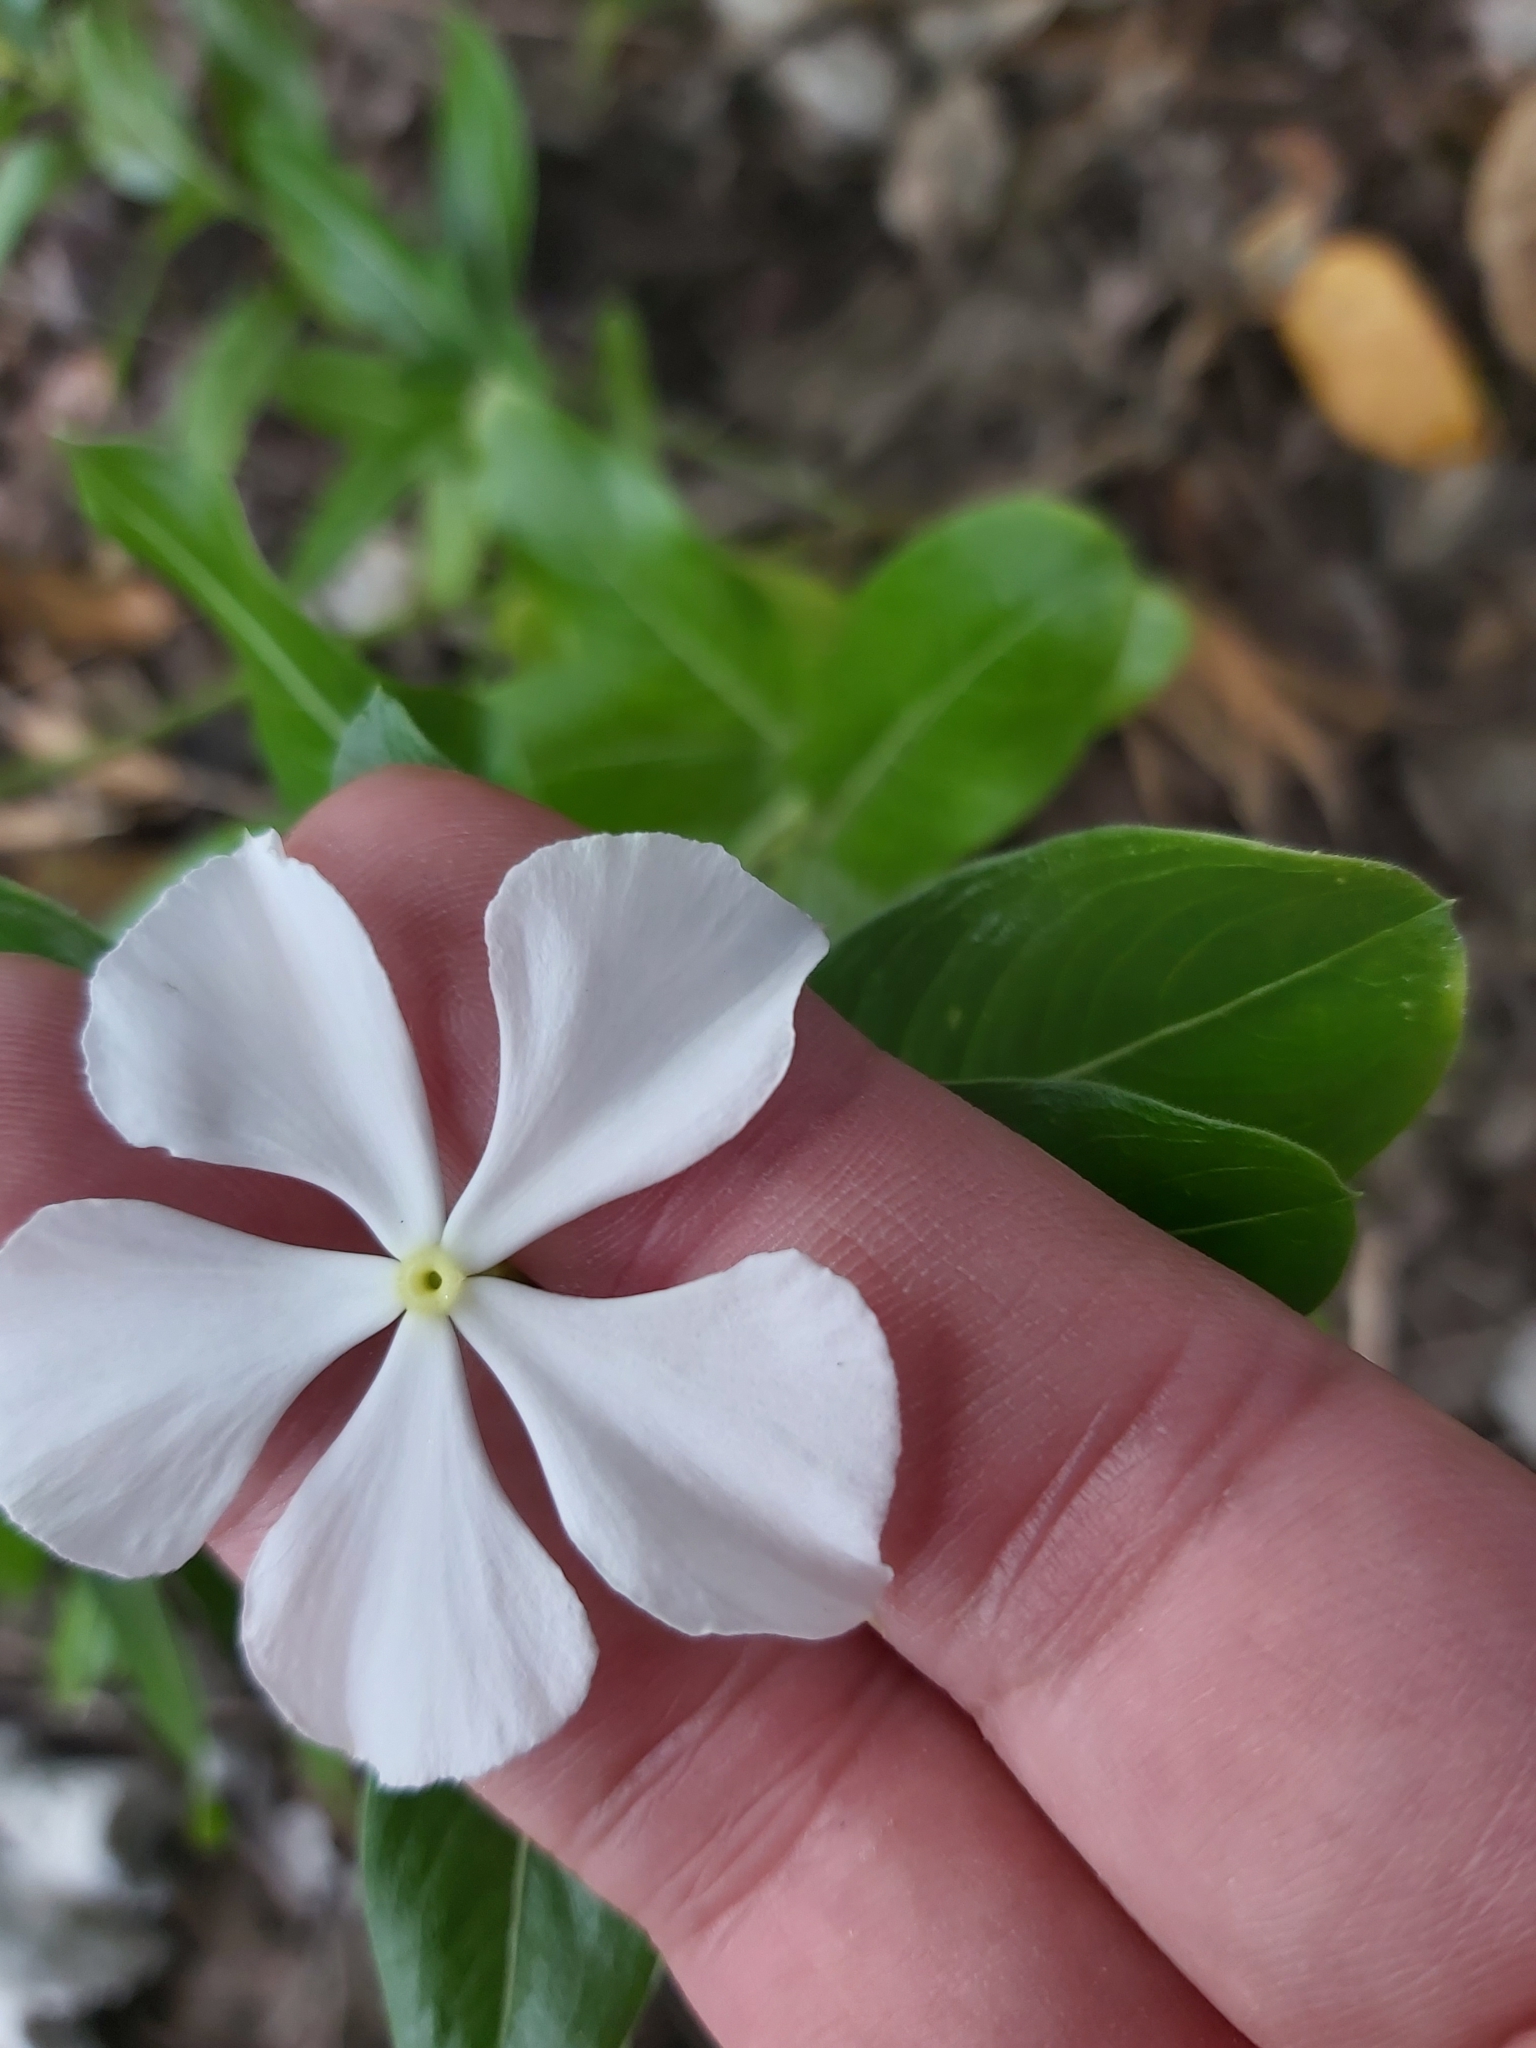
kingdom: Plantae
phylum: Tracheophyta
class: Magnoliopsida
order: Gentianales
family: Apocynaceae
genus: Catharanthus
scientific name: Catharanthus roseus
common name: Madagascar periwinkle
